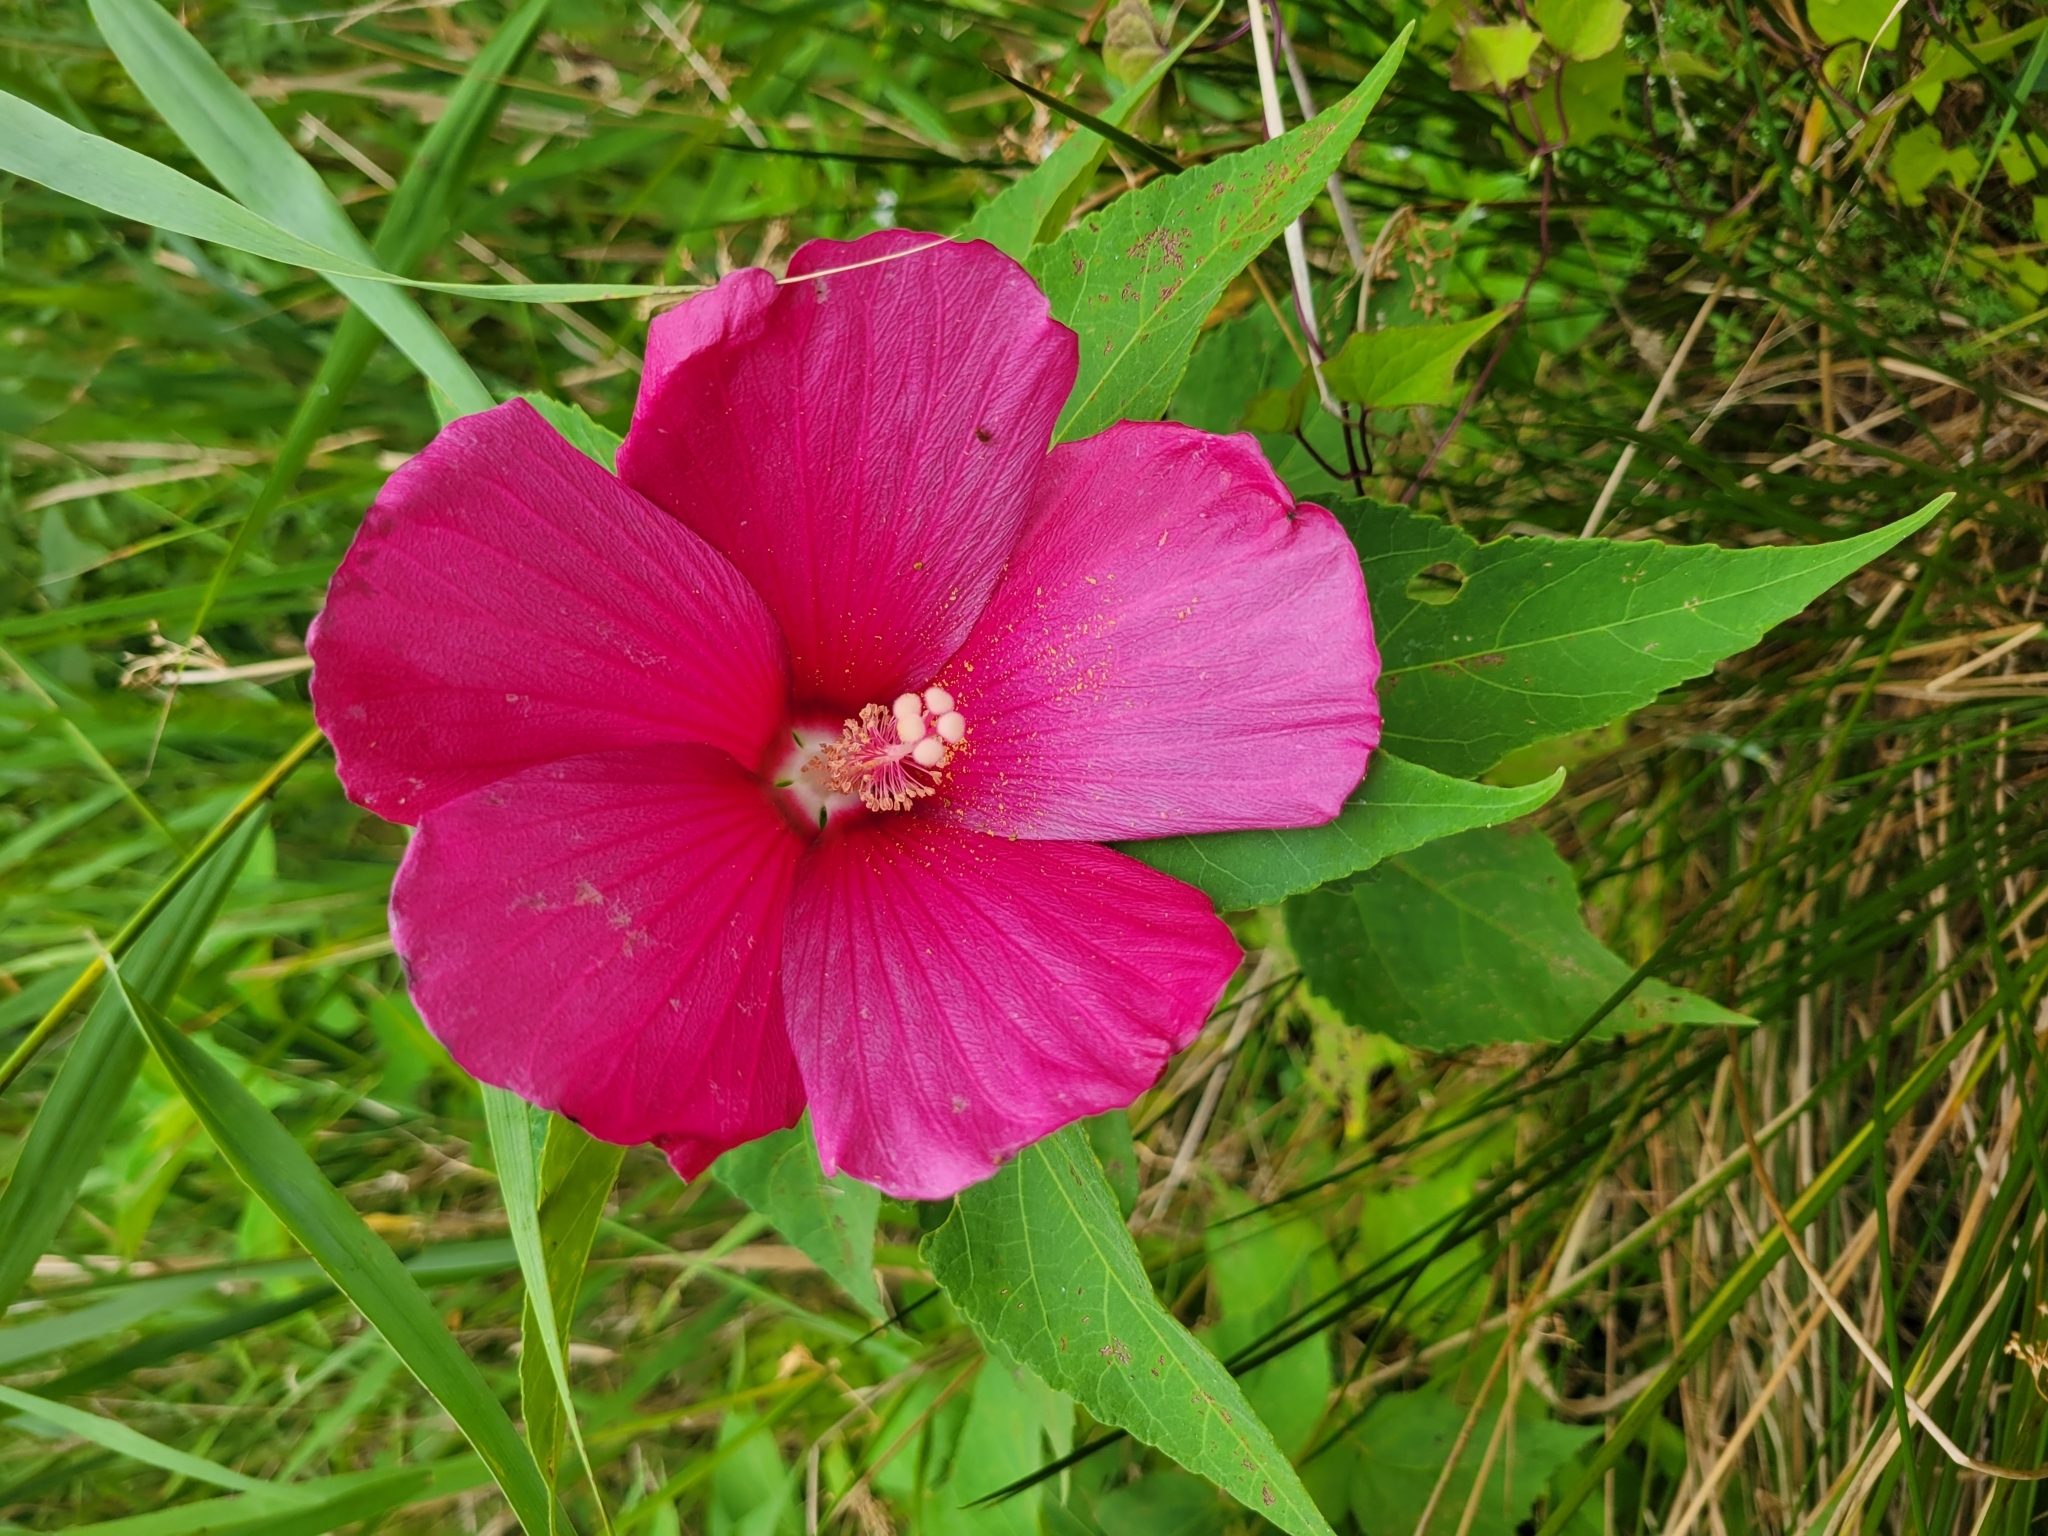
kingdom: Plantae
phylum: Tracheophyta
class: Magnoliopsida
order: Malvales
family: Malvaceae
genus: Hibiscus
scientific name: Hibiscus moscheutos
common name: Common rose-mallow
